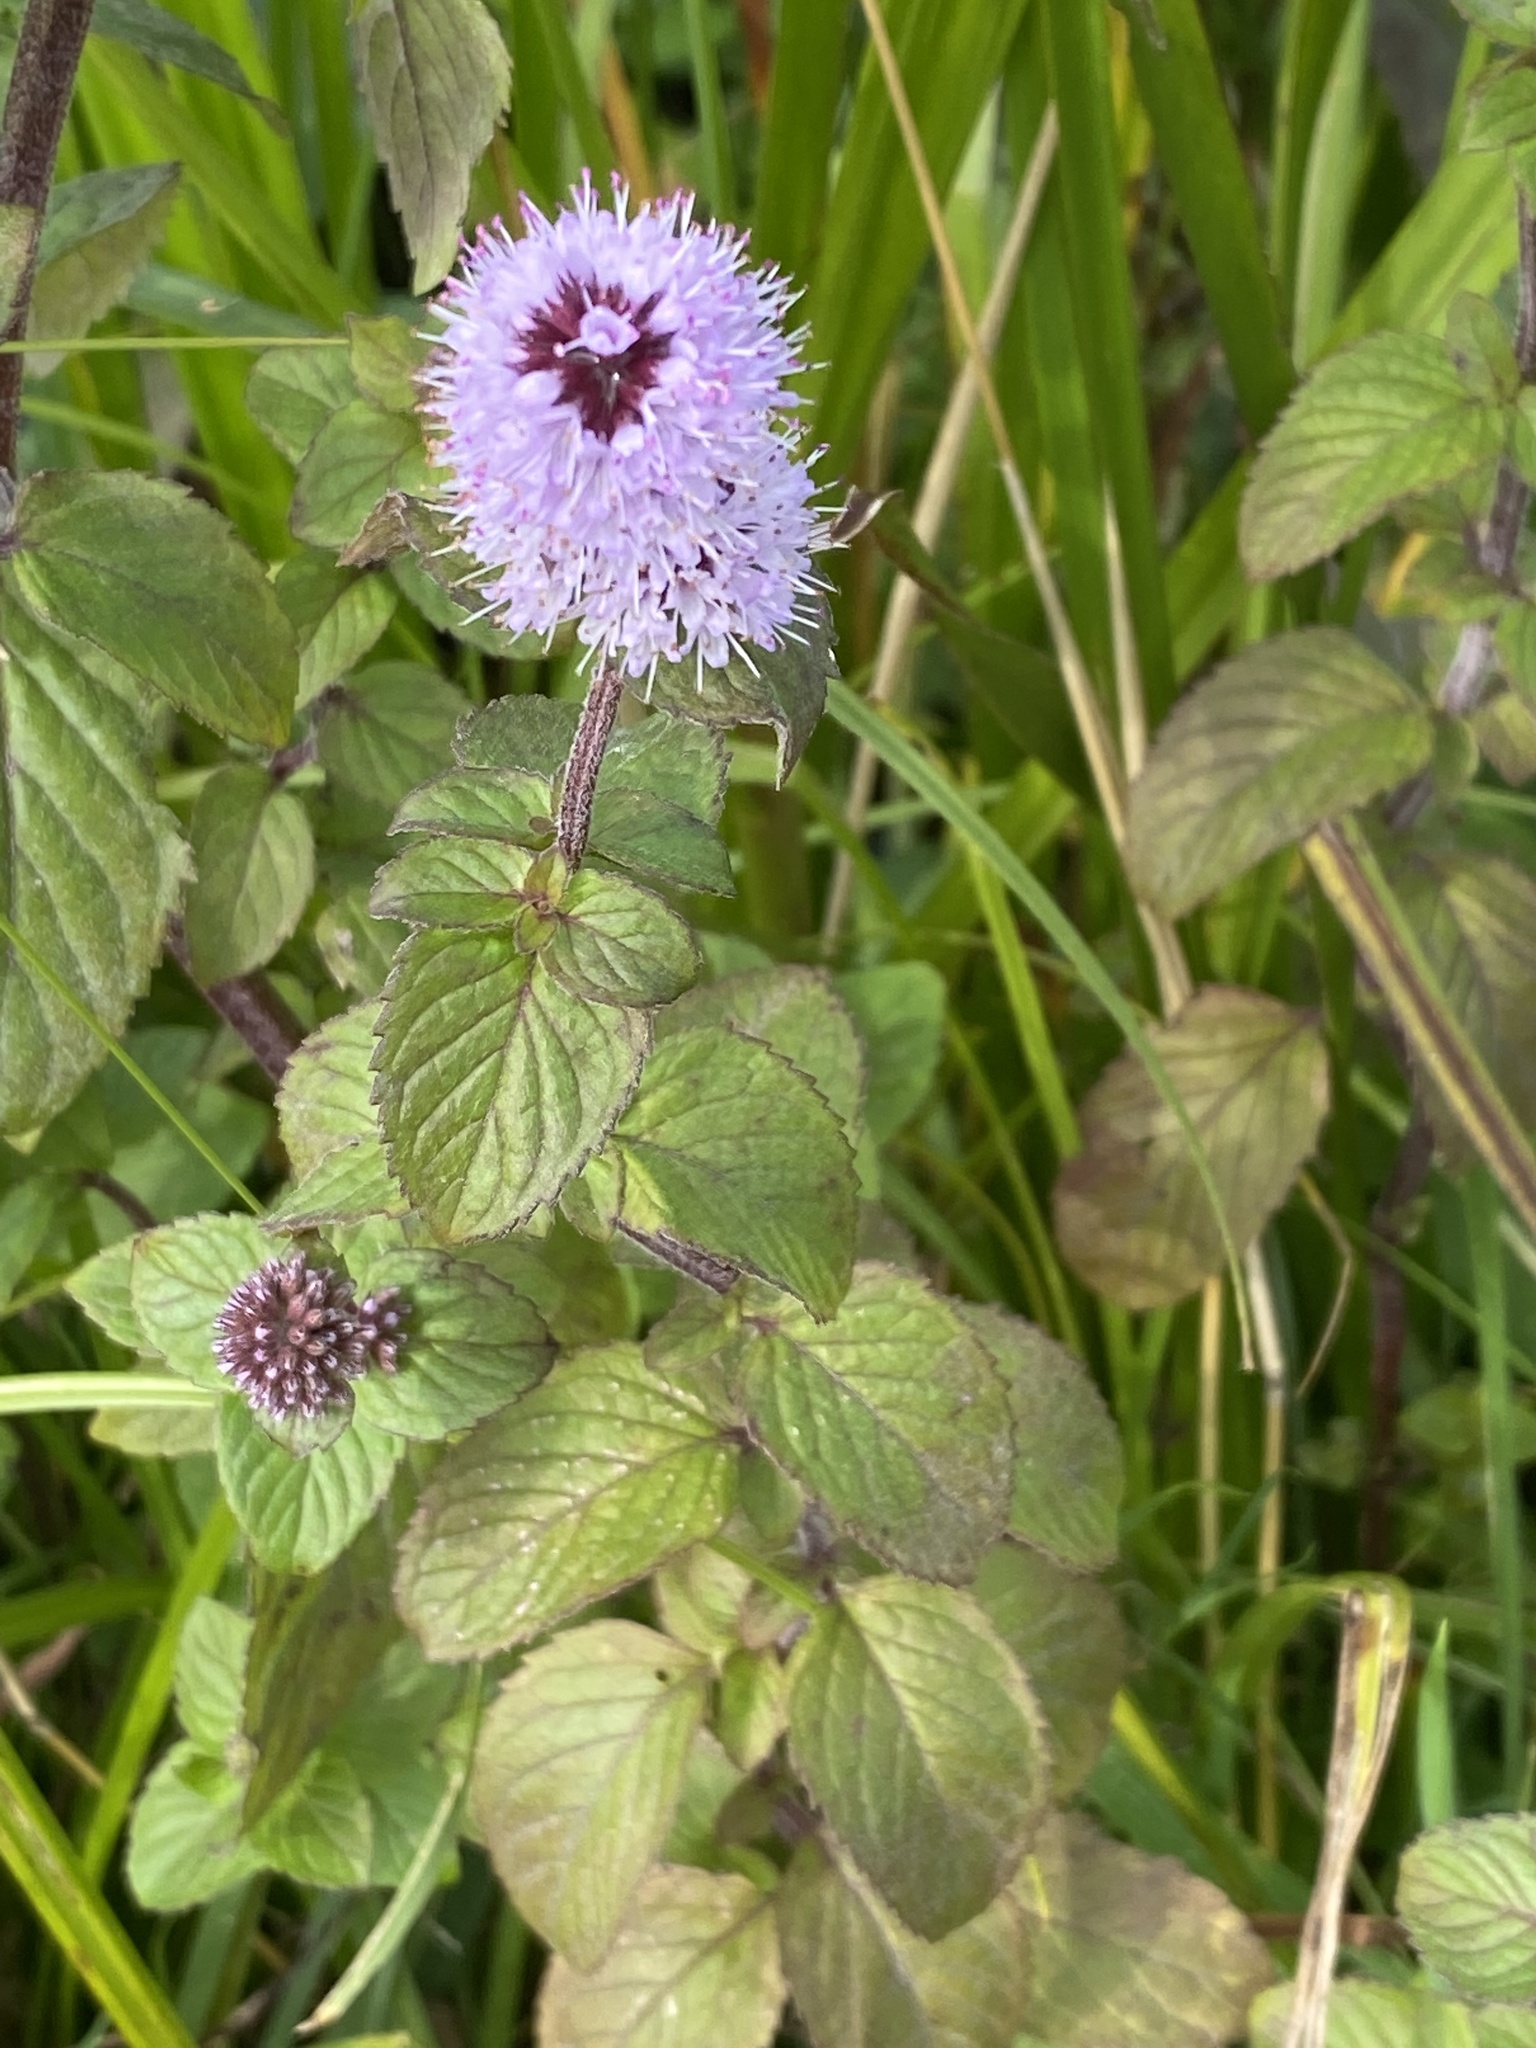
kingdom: Plantae
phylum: Tracheophyta
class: Magnoliopsida
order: Lamiales
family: Lamiaceae
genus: Mentha
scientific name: Mentha aquatica
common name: Water mint
